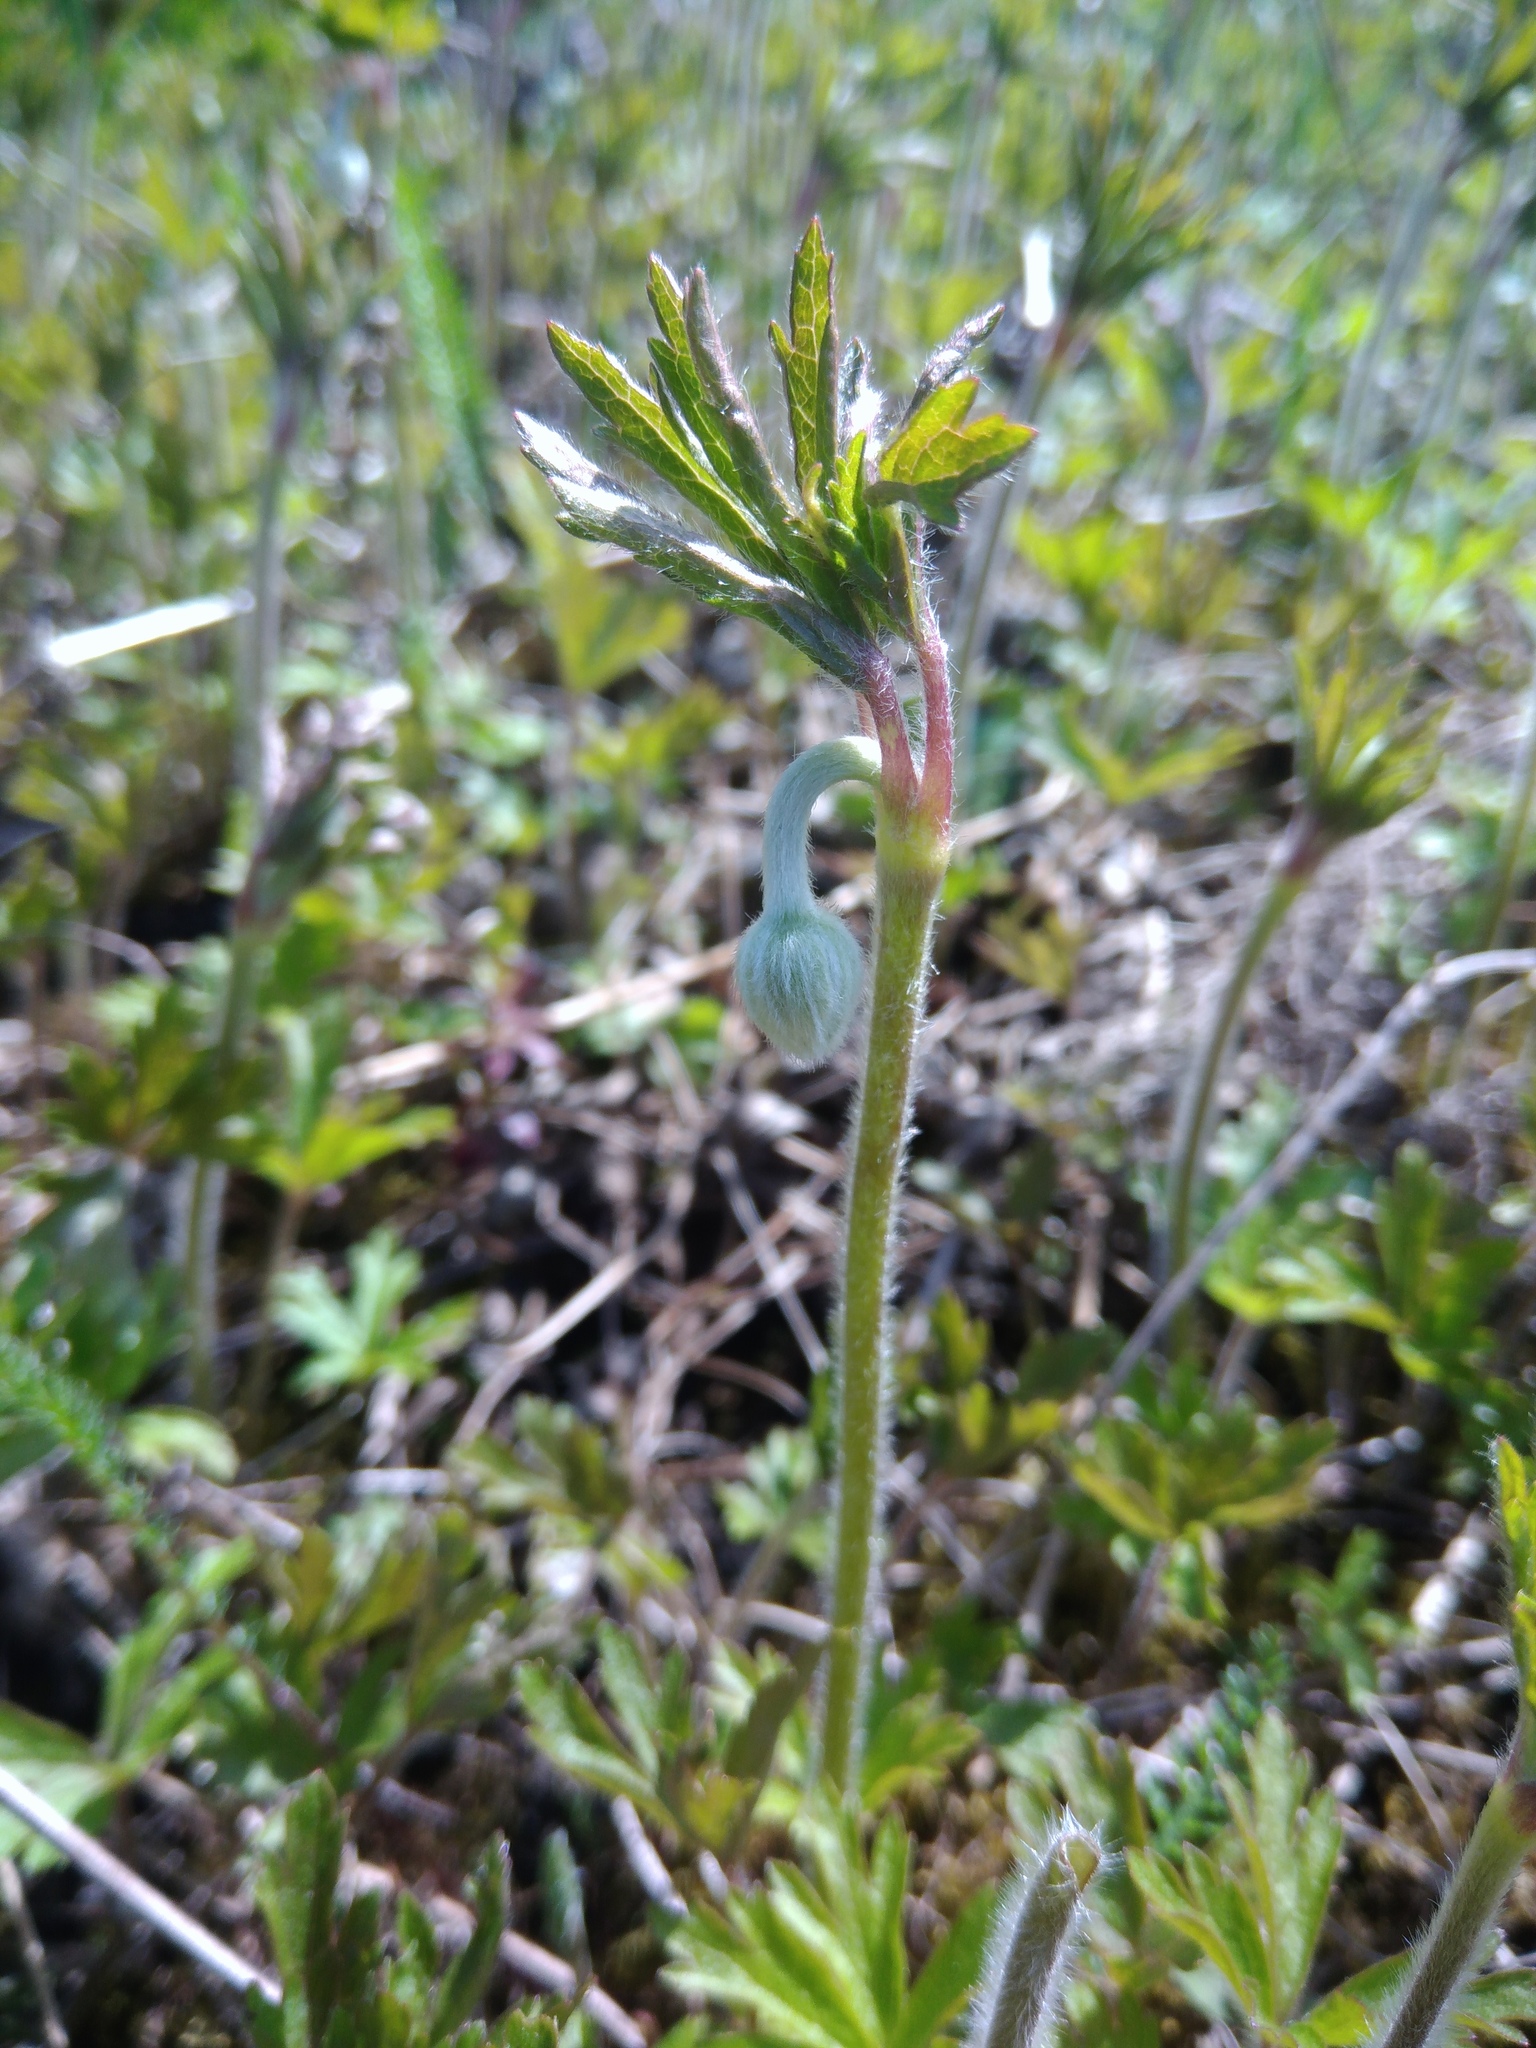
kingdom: Plantae
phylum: Tracheophyta
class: Magnoliopsida
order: Ranunculales
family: Ranunculaceae
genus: Anemone
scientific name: Anemone sylvestris
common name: Snowdrop anemone
